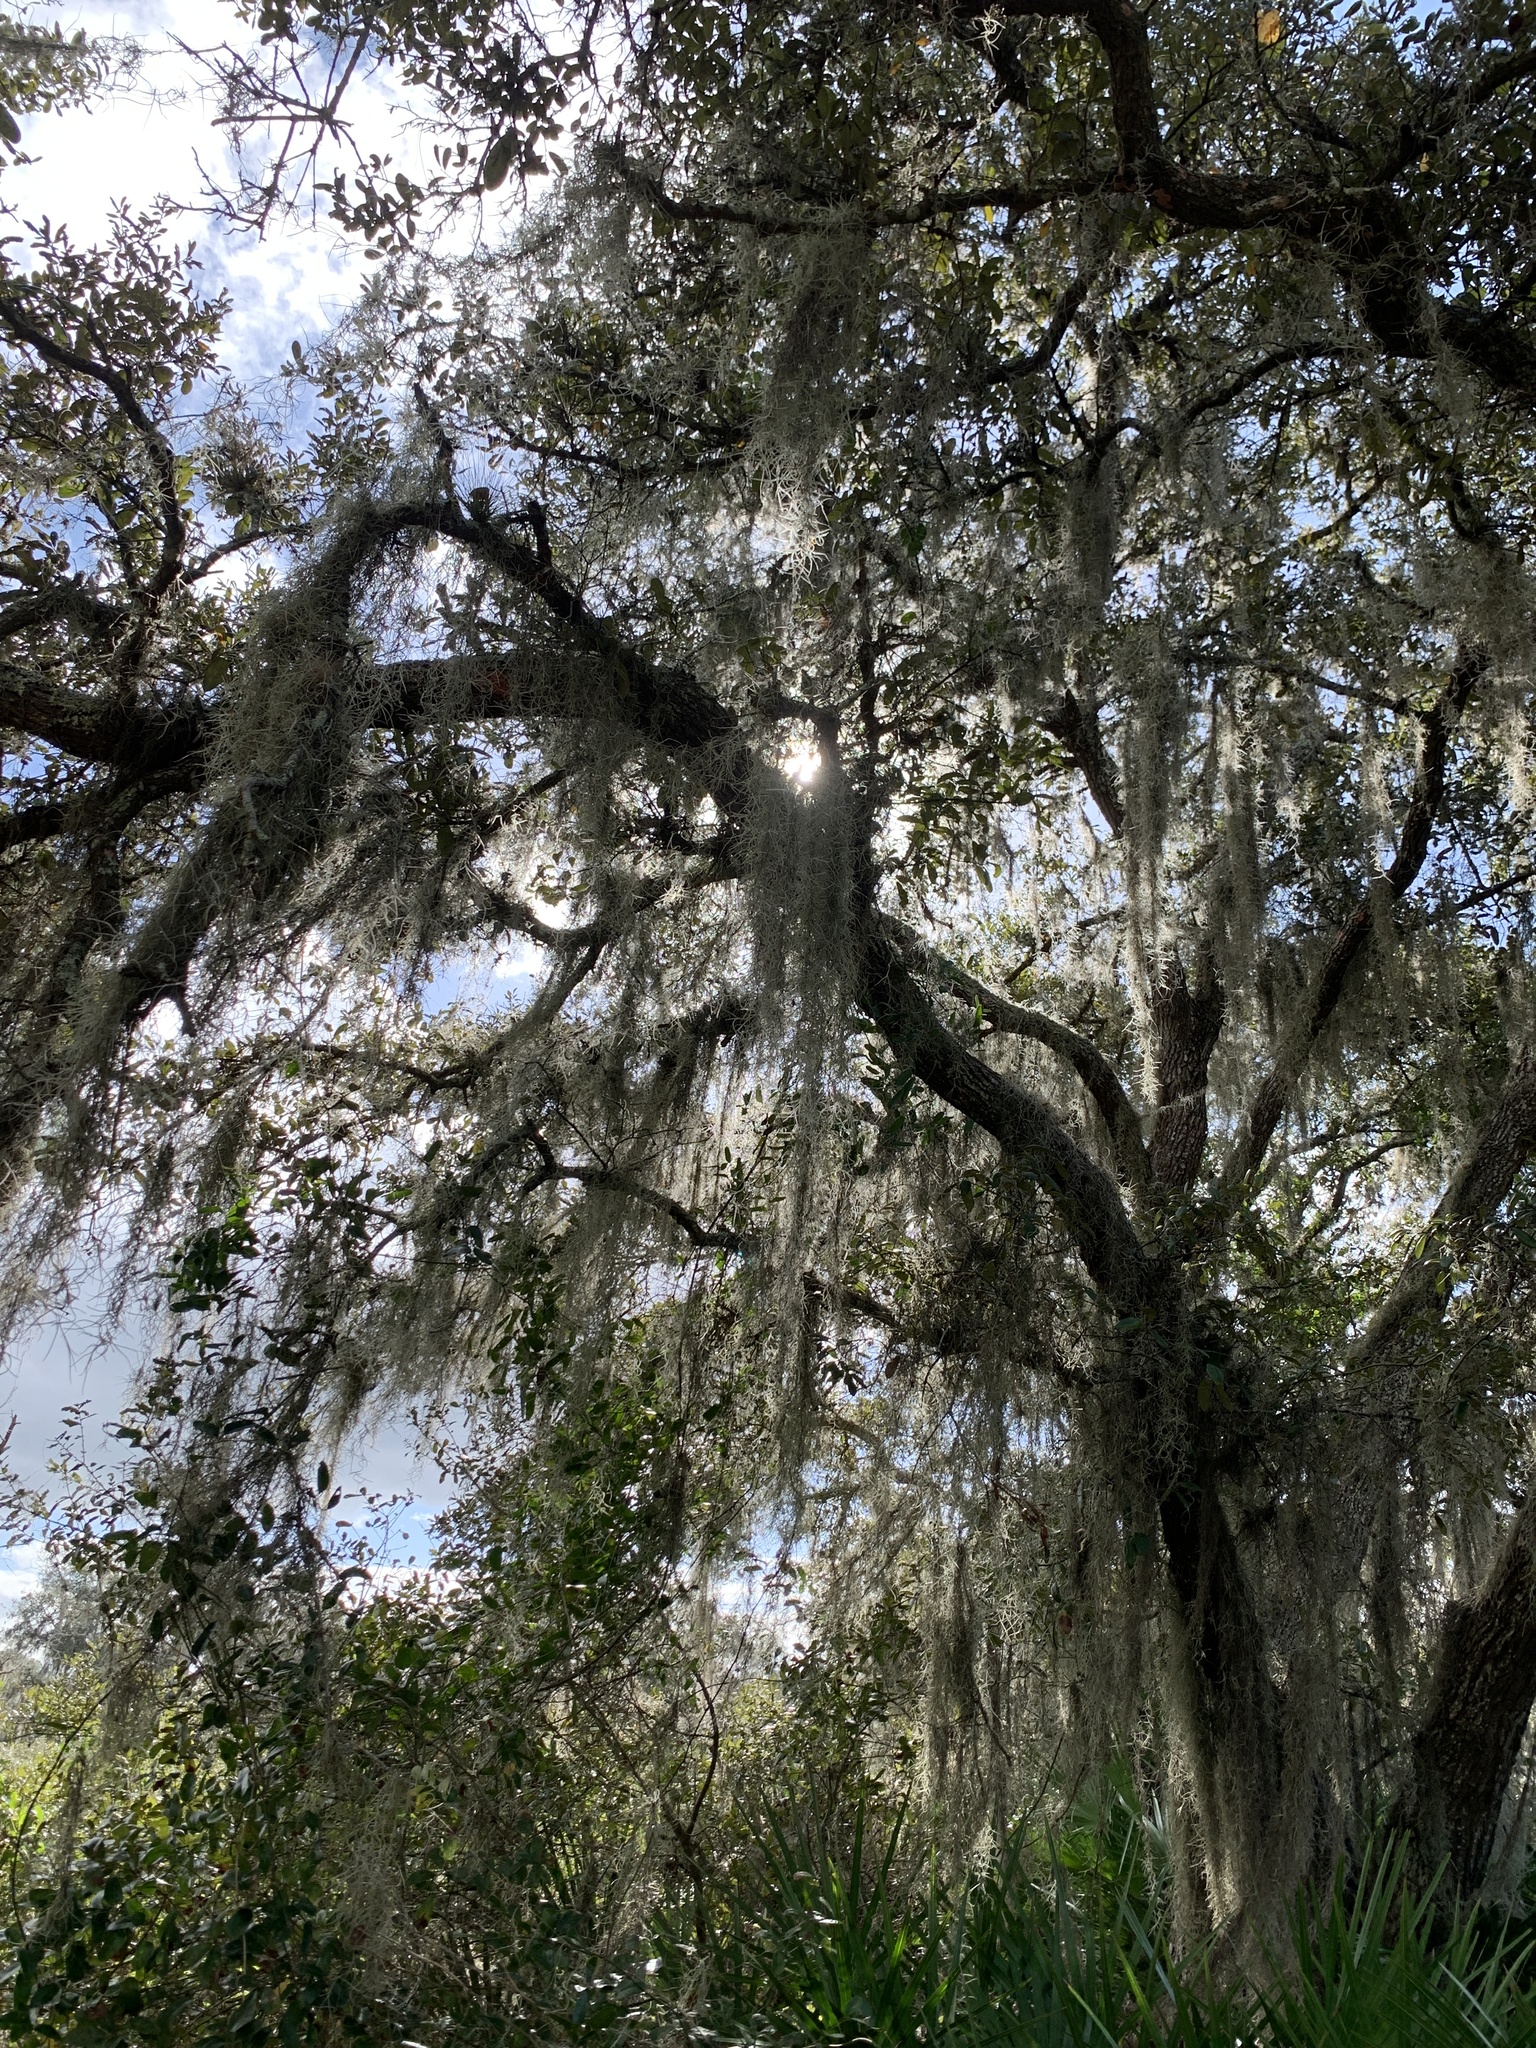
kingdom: Plantae
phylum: Tracheophyta
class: Magnoliopsida
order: Fagales
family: Fagaceae
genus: Quercus
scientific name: Quercus geminata
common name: Sand live oak
